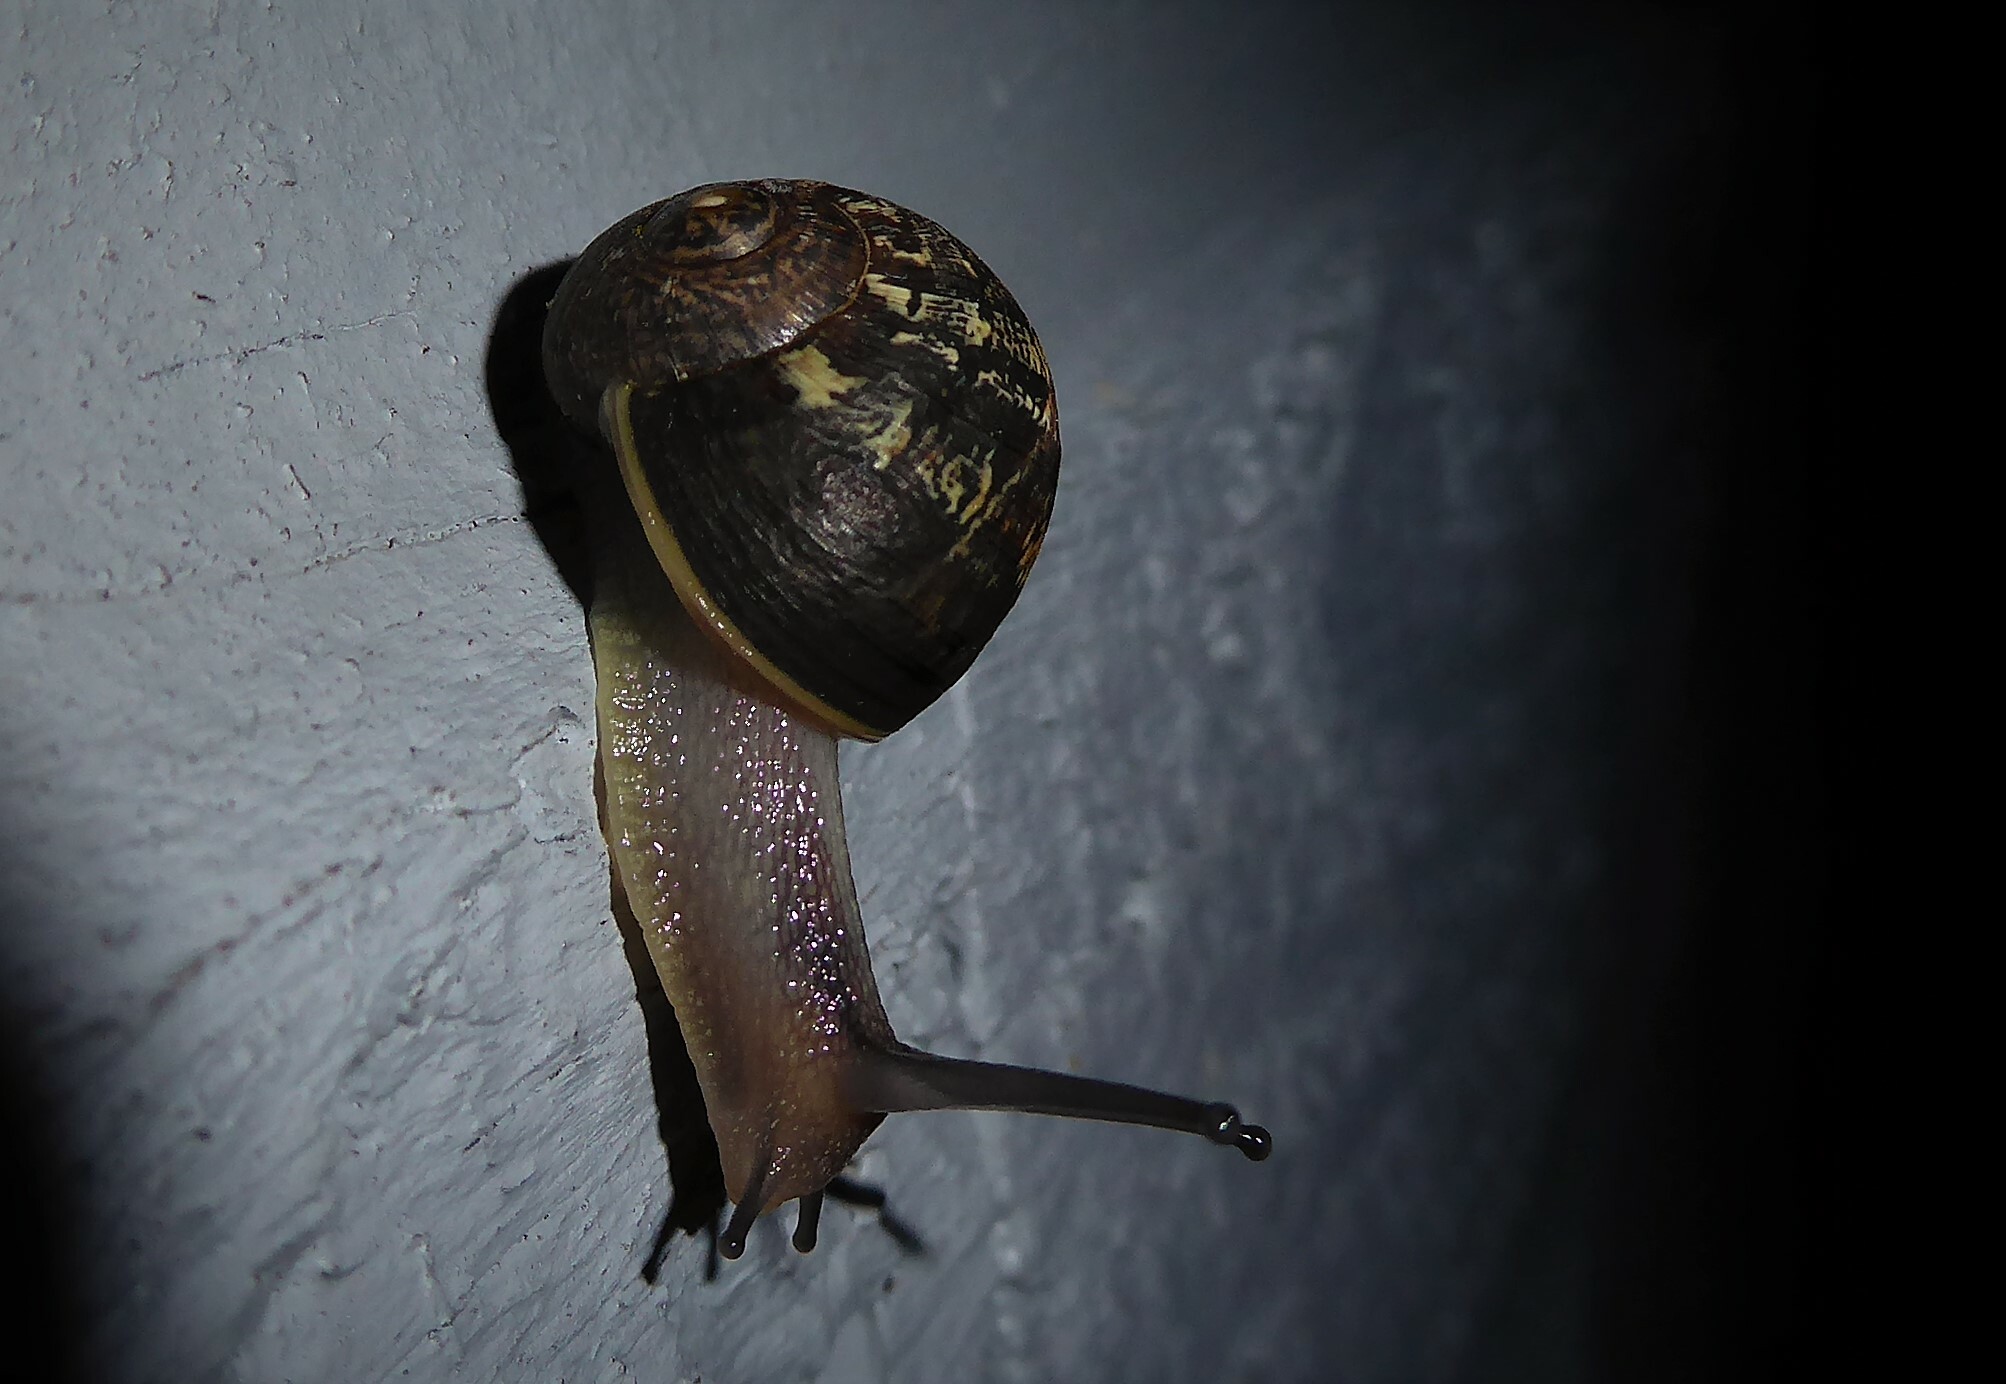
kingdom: Animalia
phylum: Mollusca
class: Gastropoda
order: Stylommatophora
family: Helicidae
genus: Cornu
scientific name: Cornu aspersum
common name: Brown garden snail
